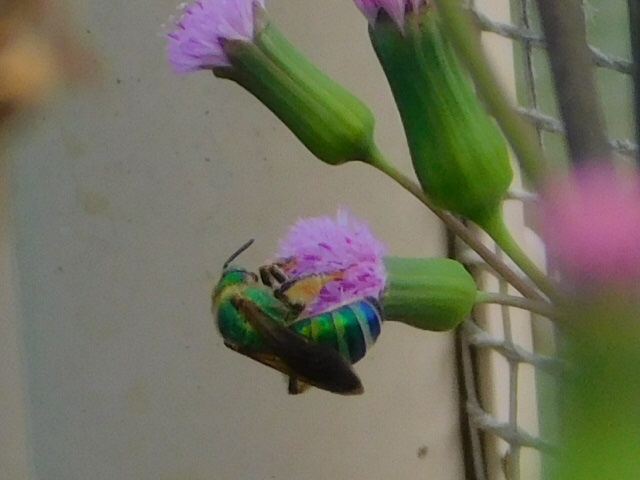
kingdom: Animalia
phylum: Arthropoda
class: Insecta
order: Hymenoptera
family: Halictidae
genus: Agapostemon
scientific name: Agapostemon splendens
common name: Brown-winged striped sweat bee
